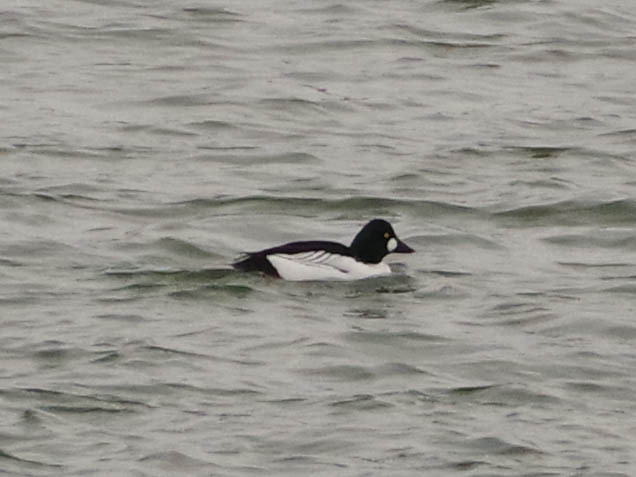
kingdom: Animalia
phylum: Chordata
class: Aves
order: Anseriformes
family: Anatidae
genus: Bucephala
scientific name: Bucephala clangula
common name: Common goldeneye
